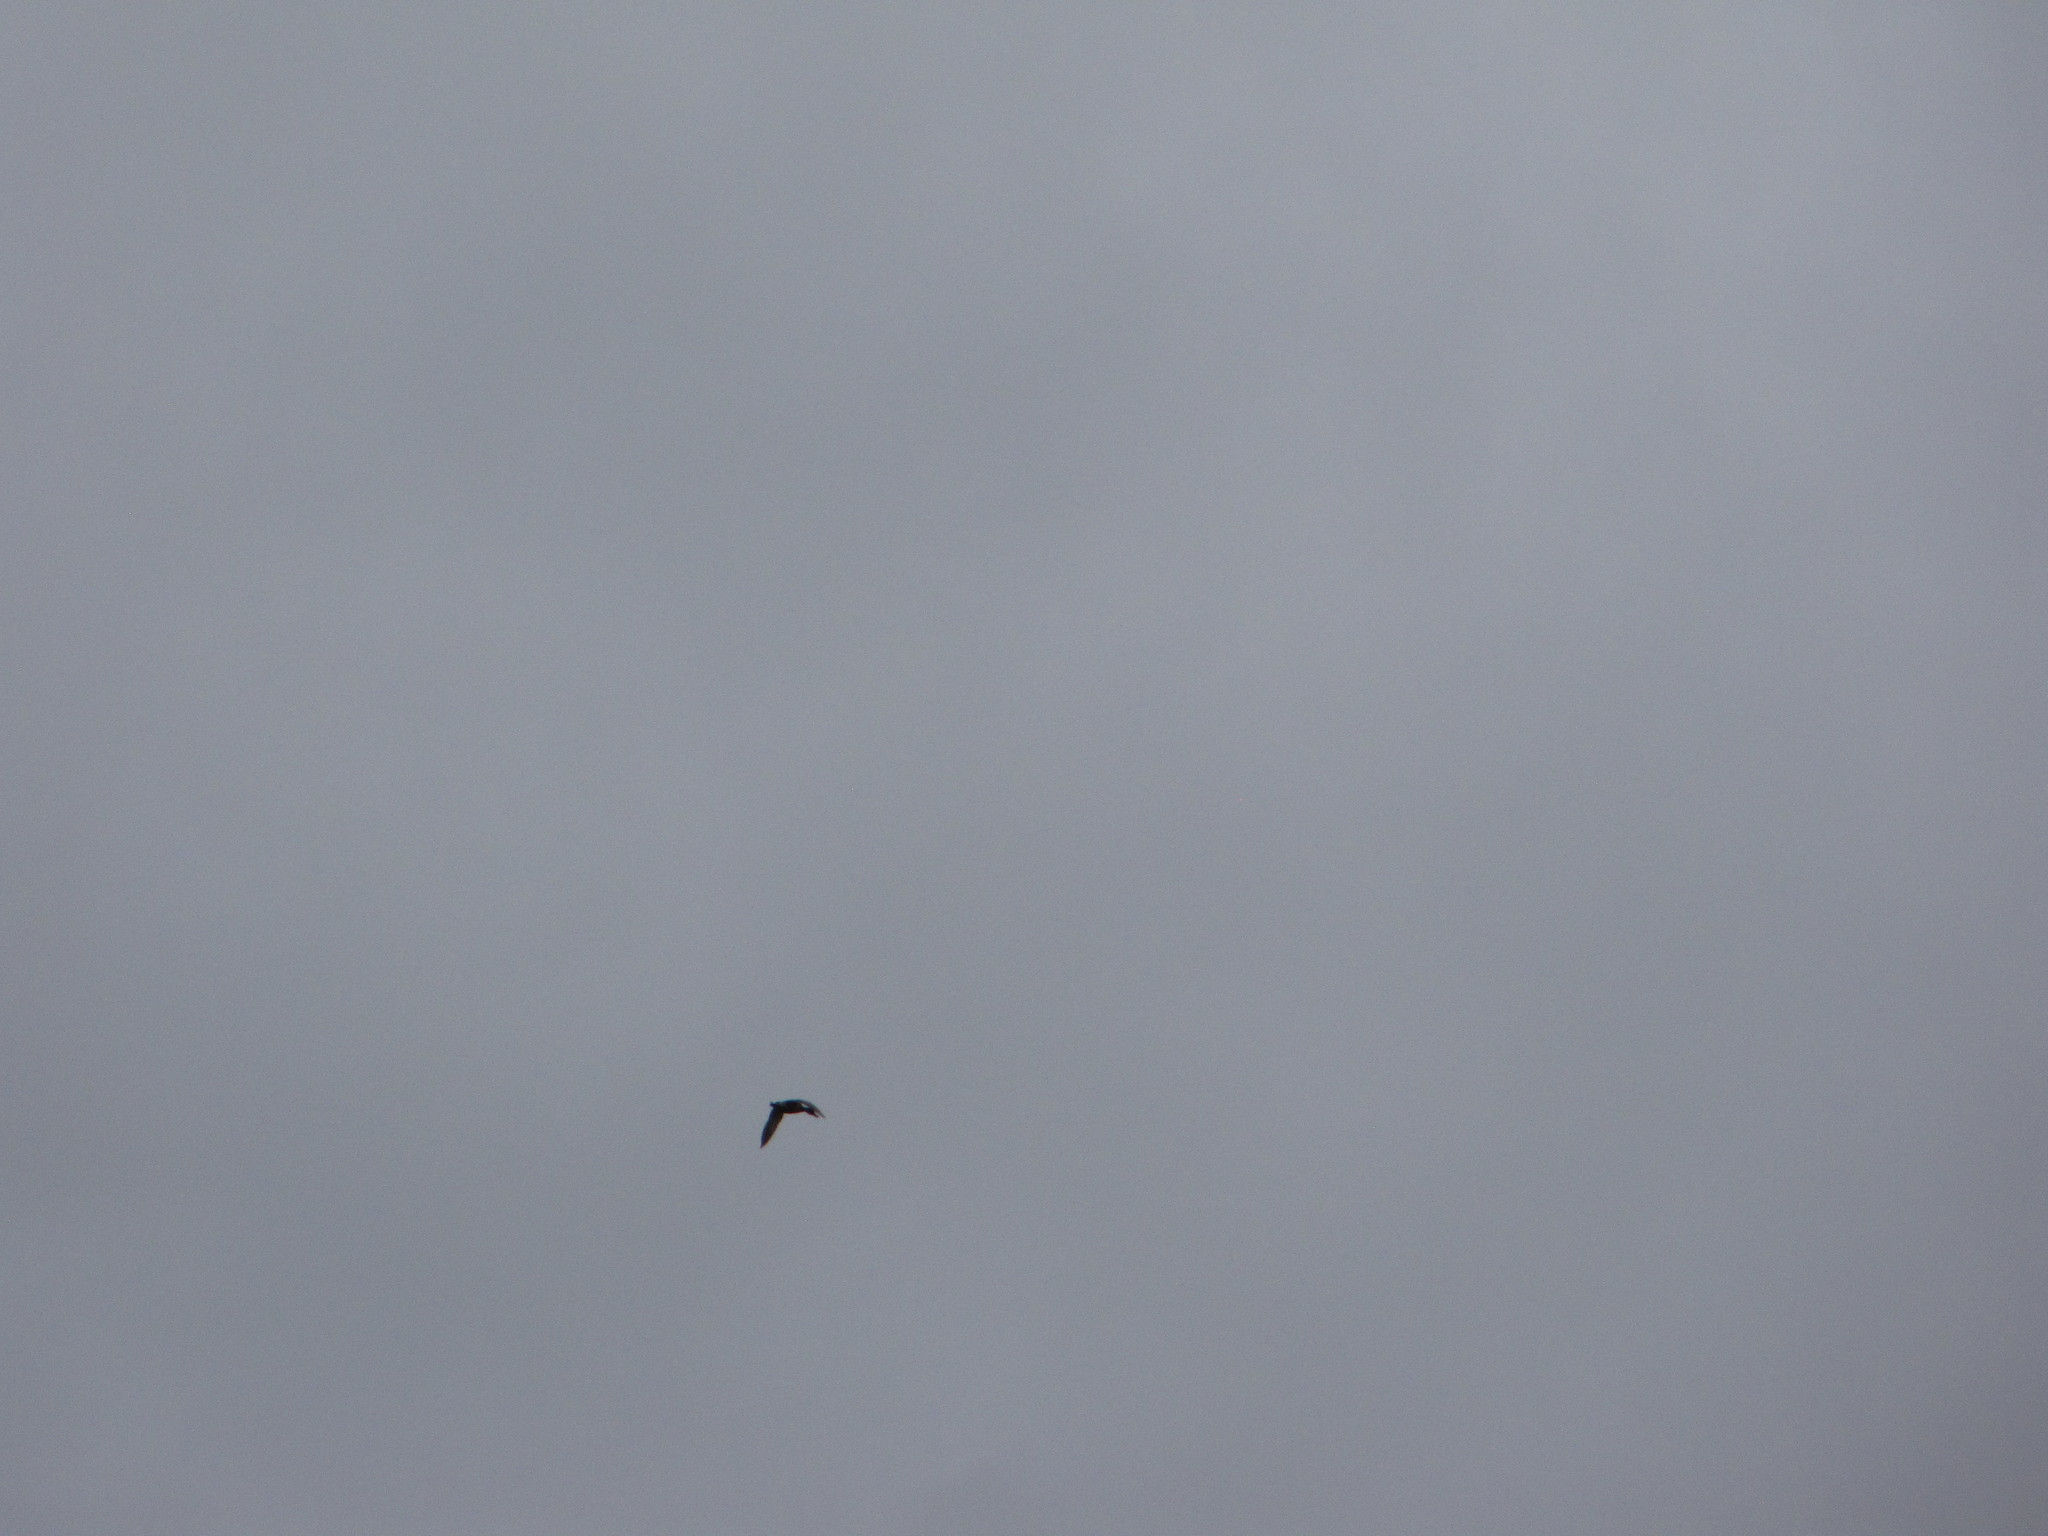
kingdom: Animalia
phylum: Chordata
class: Aves
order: Anseriformes
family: Anatidae
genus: Anas
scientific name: Anas platyrhynchos
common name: Mallard
